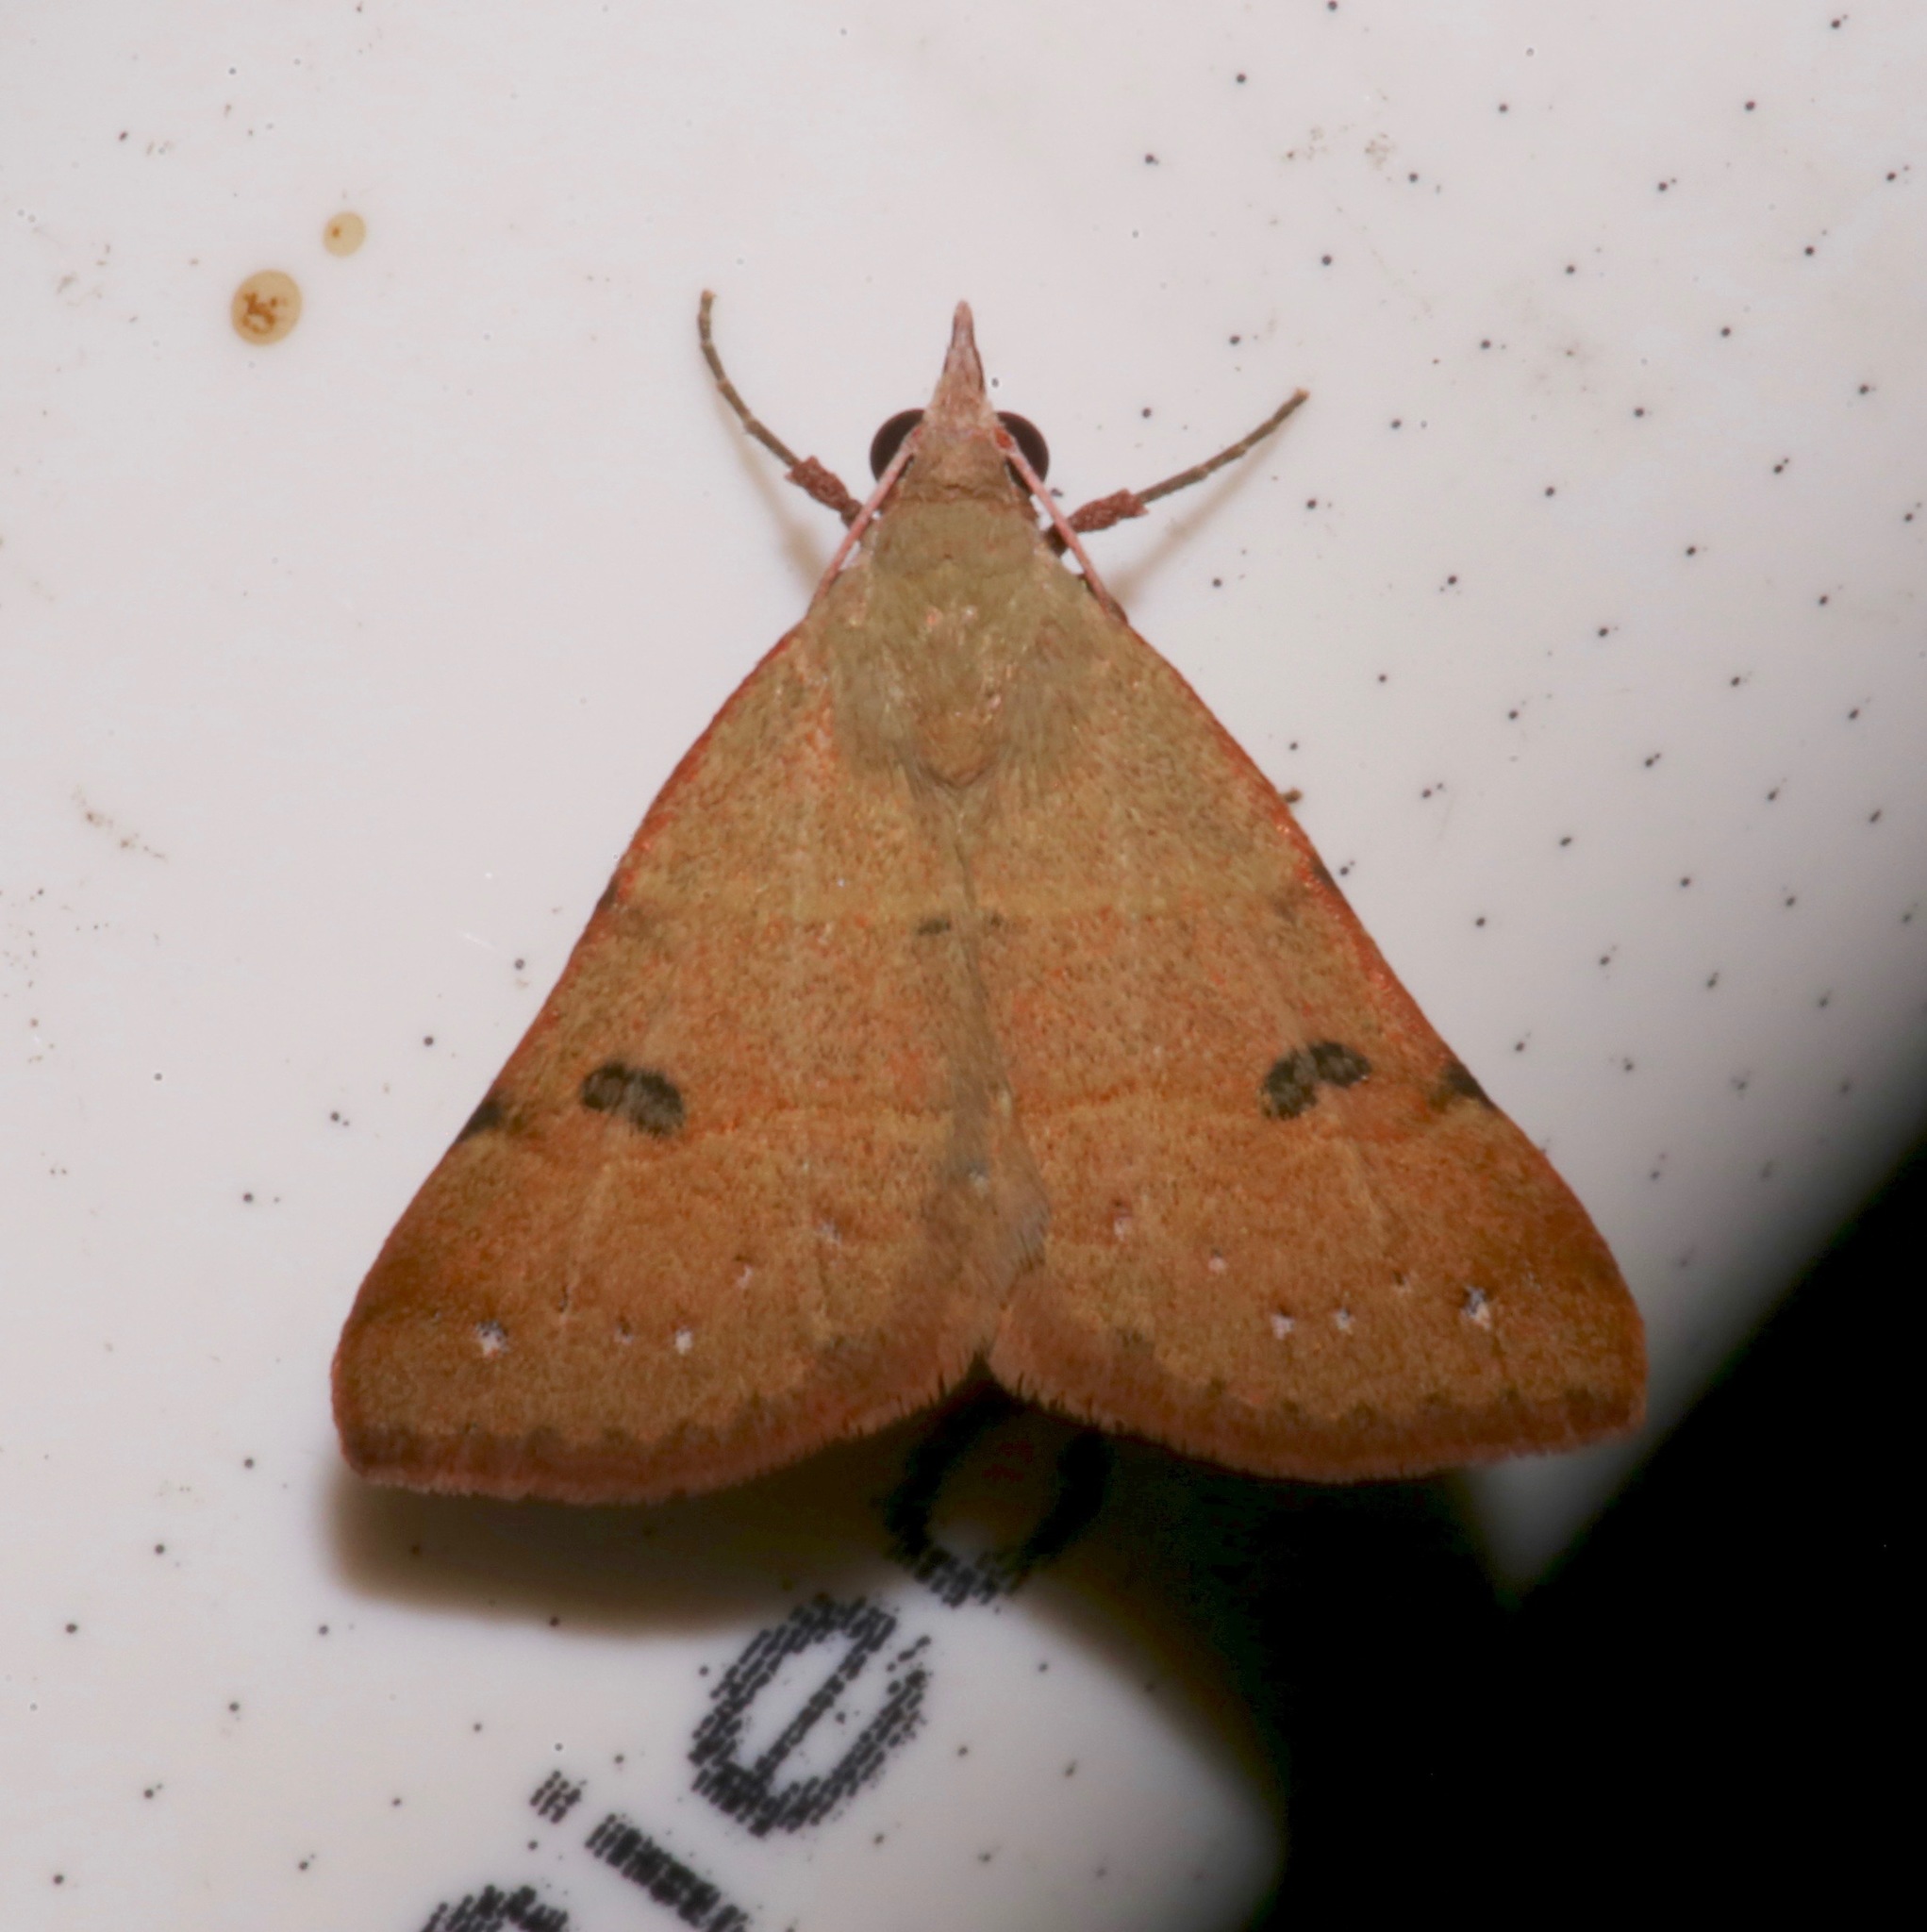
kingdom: Animalia
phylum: Arthropoda
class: Insecta
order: Lepidoptera
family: Erebidae
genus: Hemeroplanis
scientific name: Hemeroplanis habitalis
